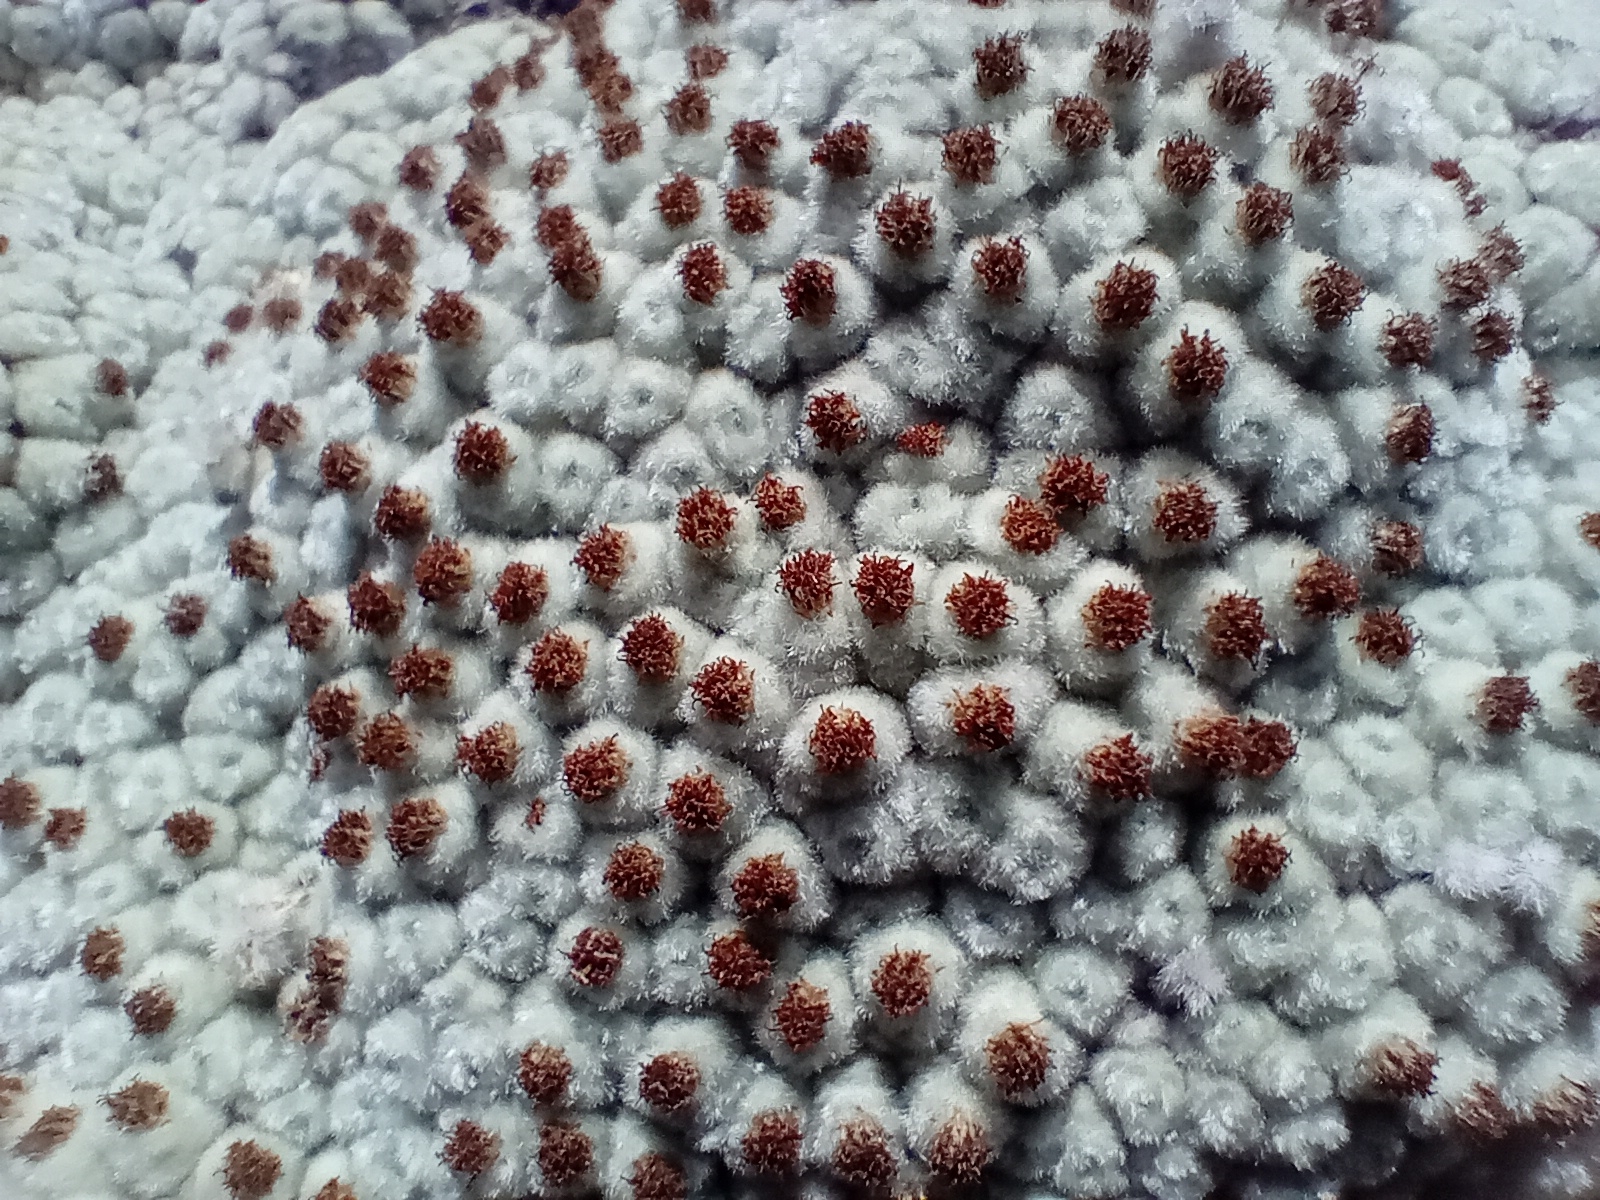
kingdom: Plantae
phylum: Tracheophyta
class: Magnoliopsida
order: Asterales
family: Asteraceae
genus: Raoulia
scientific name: Raoulia eximia
